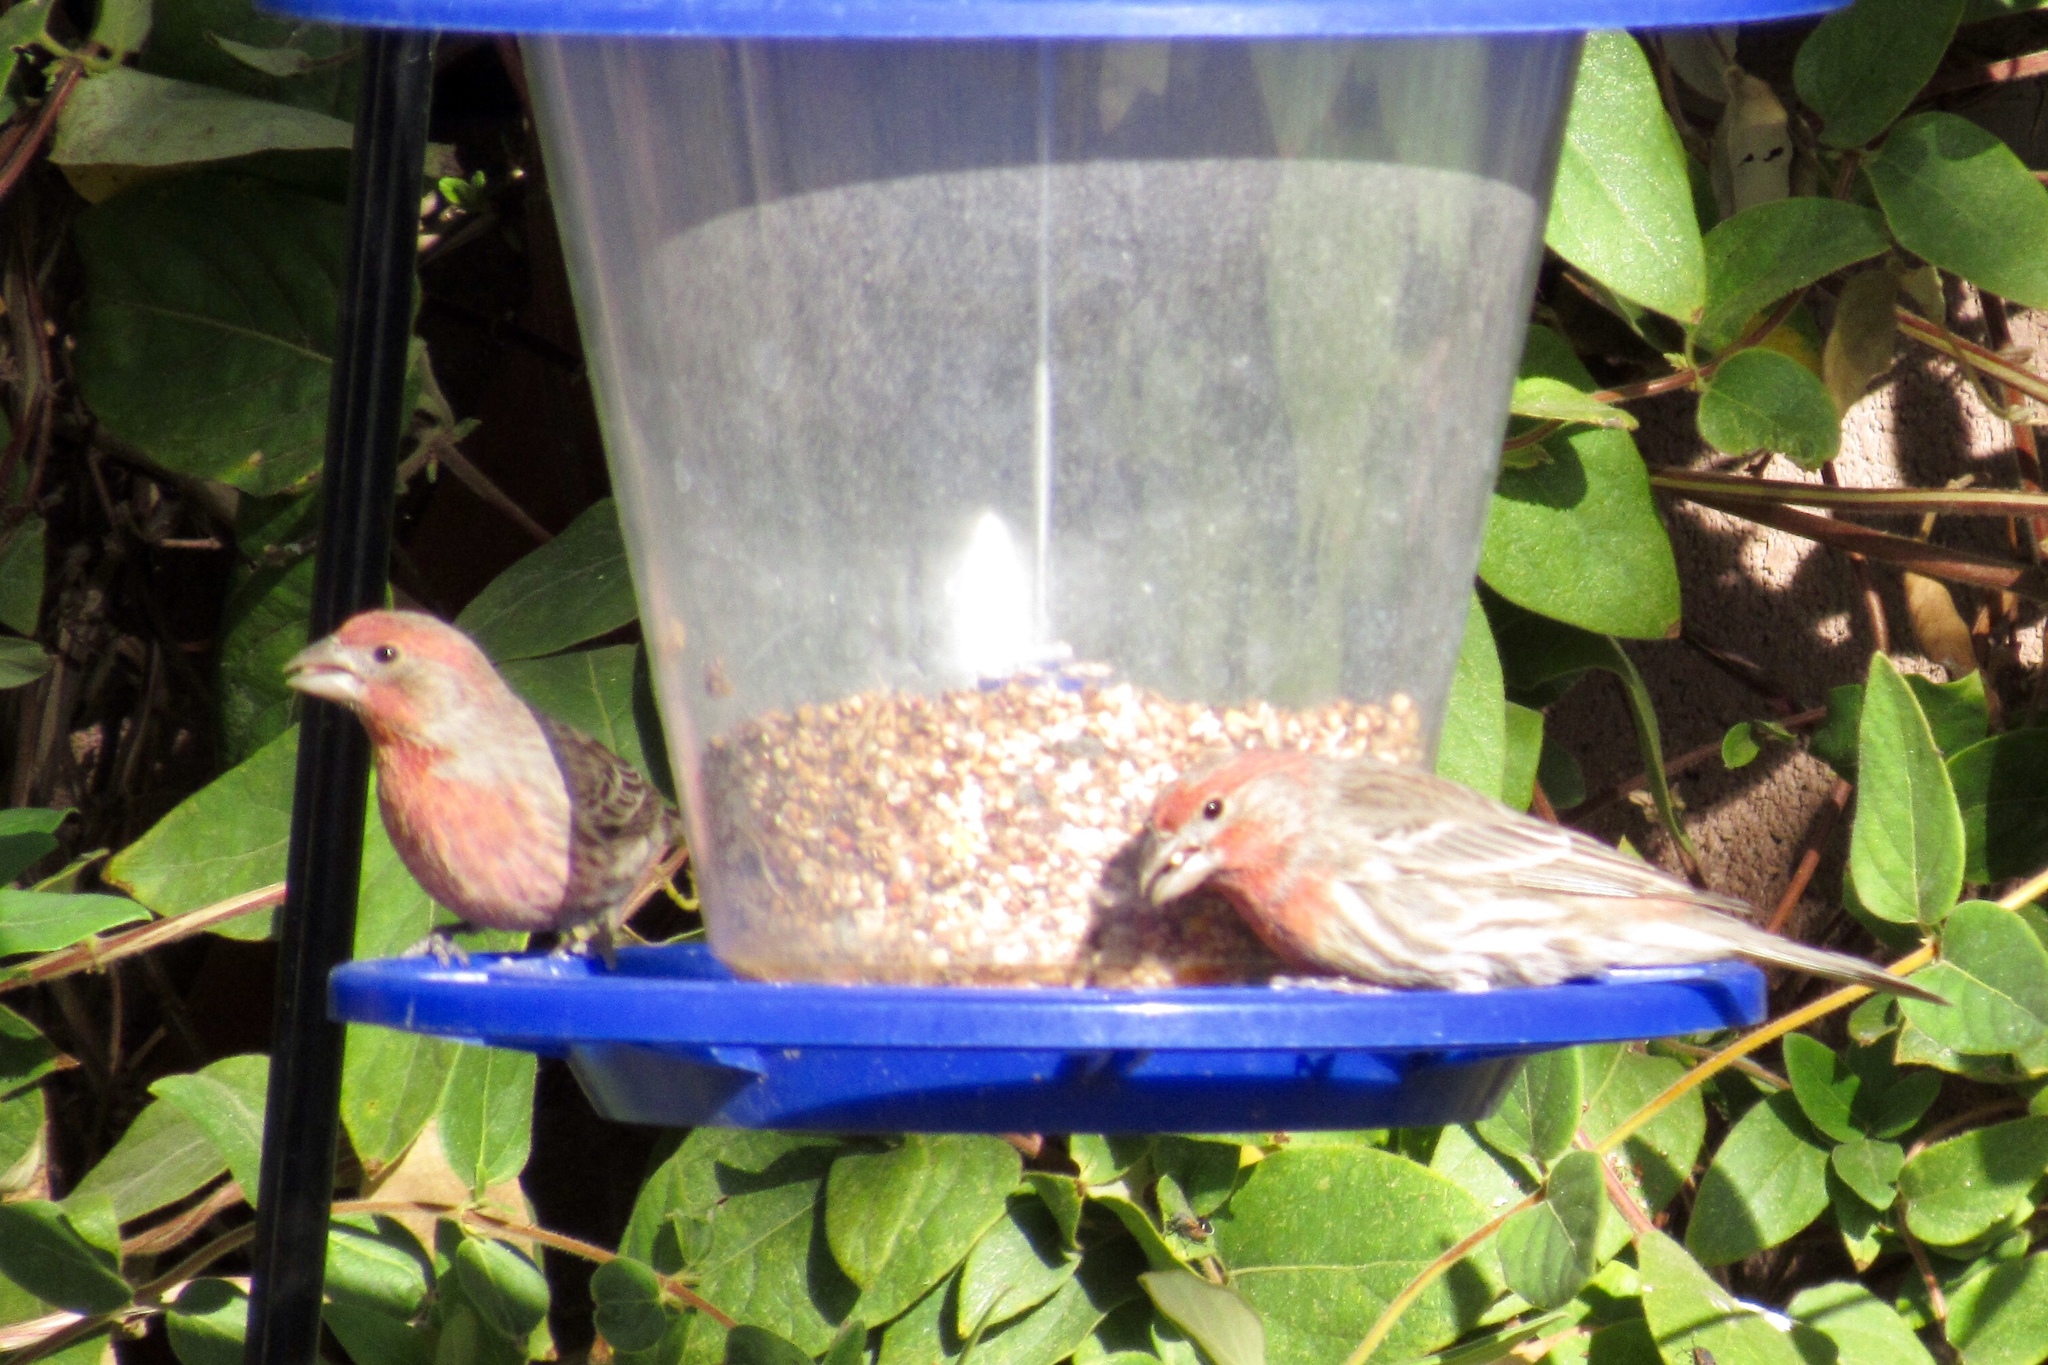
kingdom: Animalia
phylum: Chordata
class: Aves
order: Passeriformes
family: Fringillidae
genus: Haemorhous
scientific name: Haemorhous mexicanus
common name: House finch
